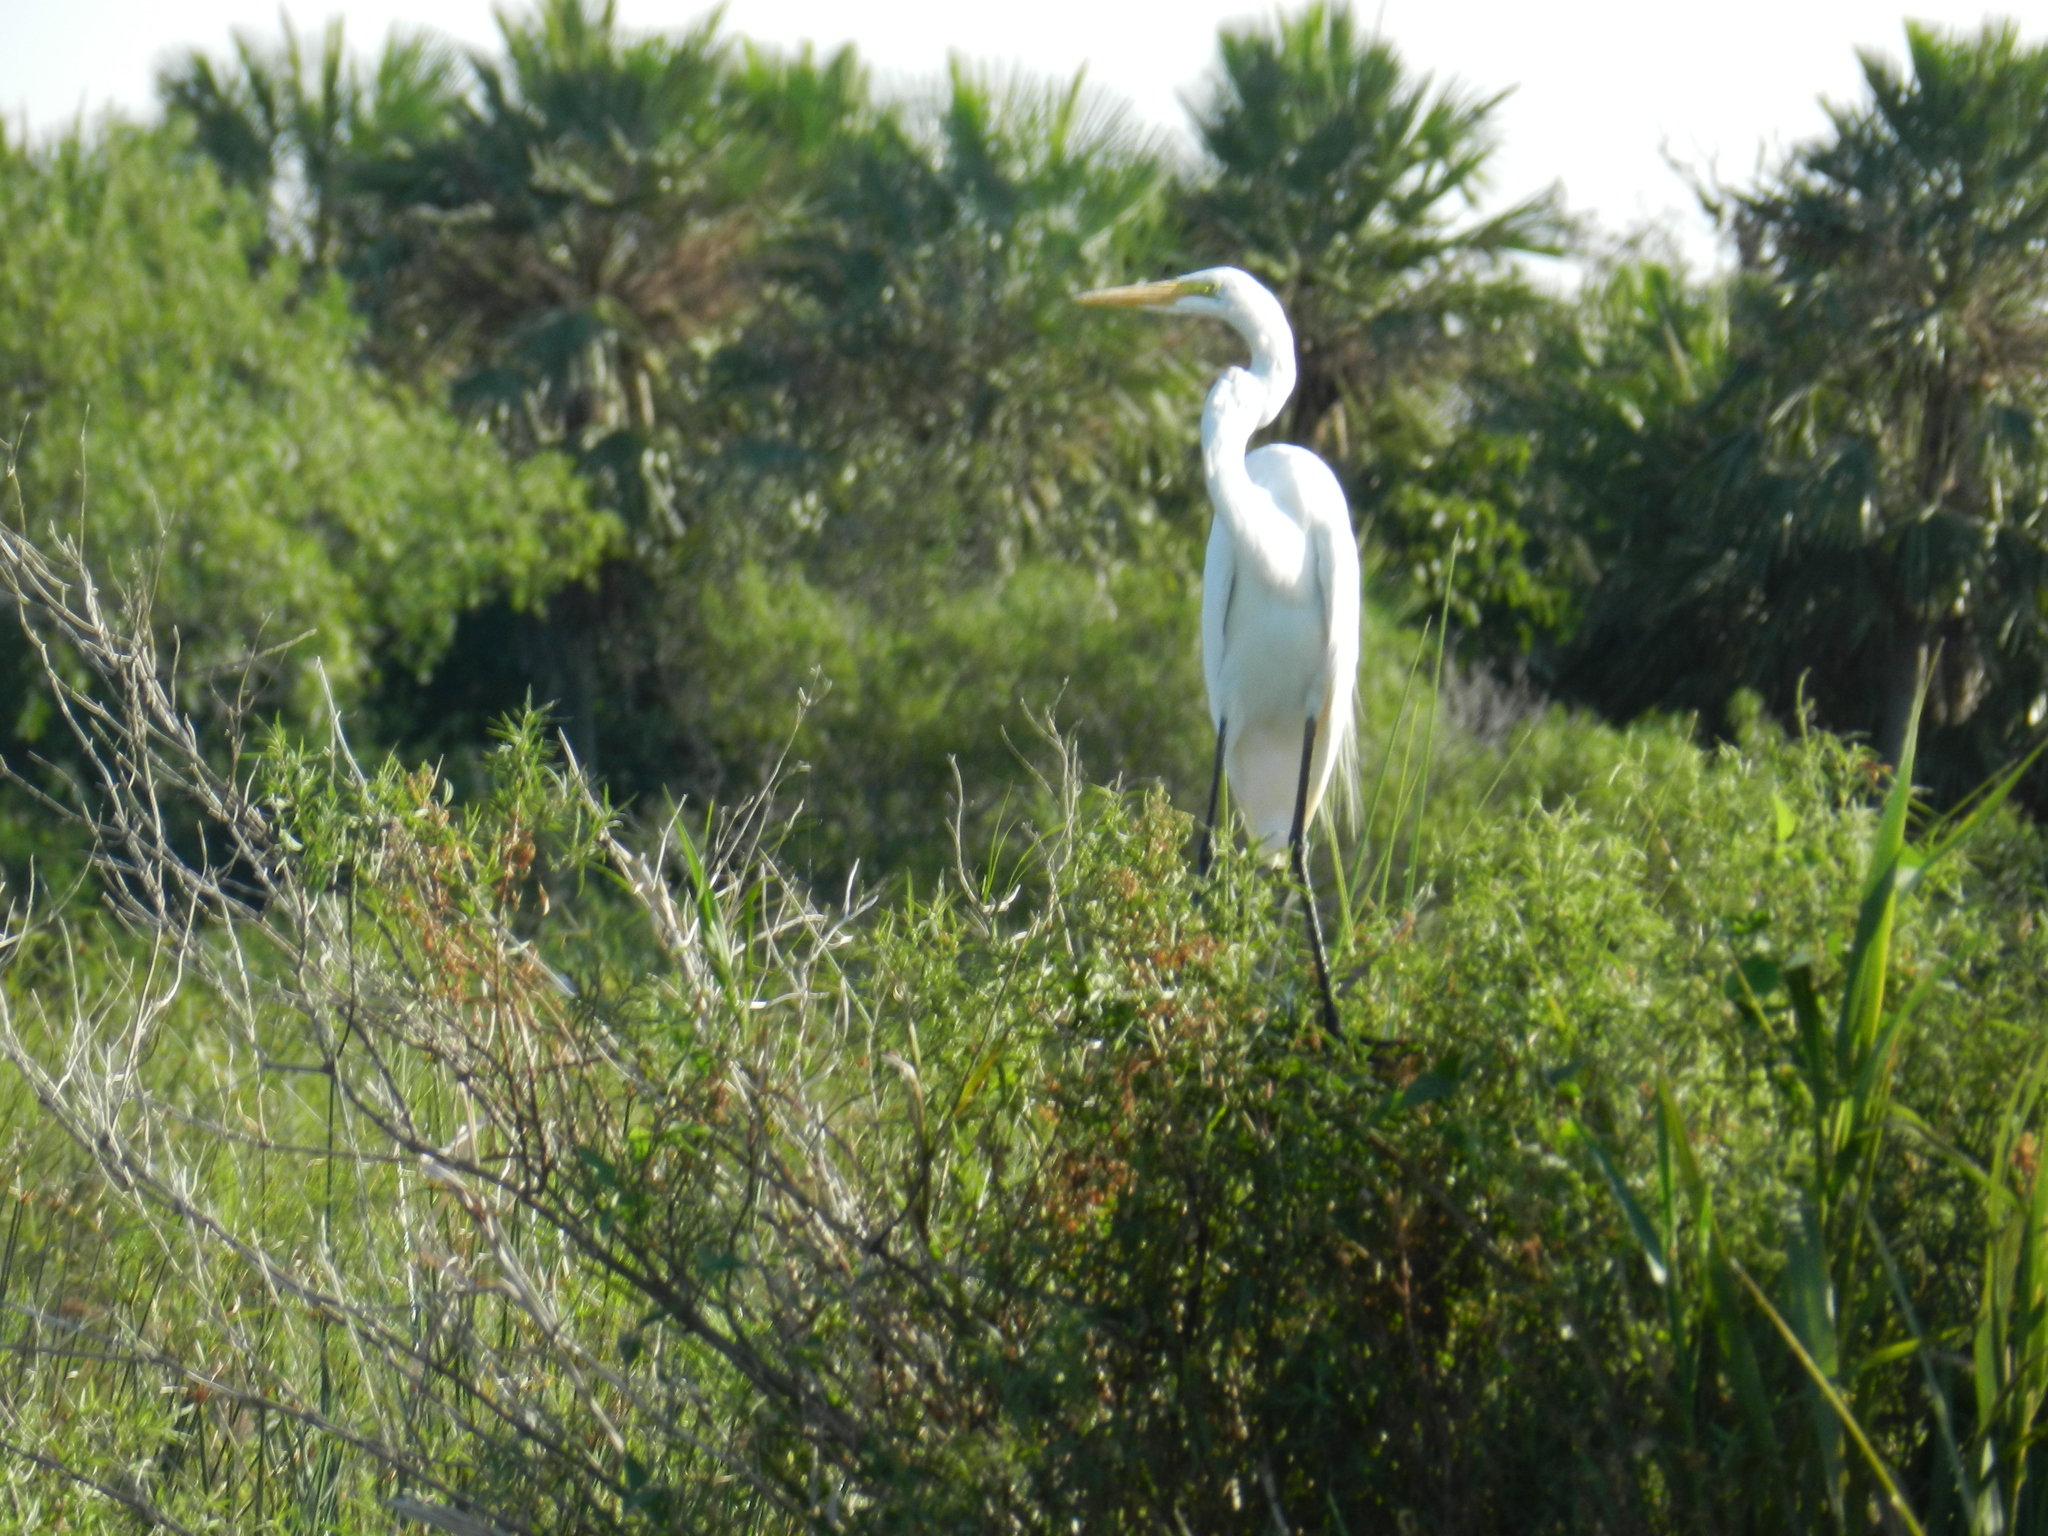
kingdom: Animalia
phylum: Chordata
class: Aves
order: Pelecaniformes
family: Ardeidae
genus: Ardea
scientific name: Ardea alba
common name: Great egret
